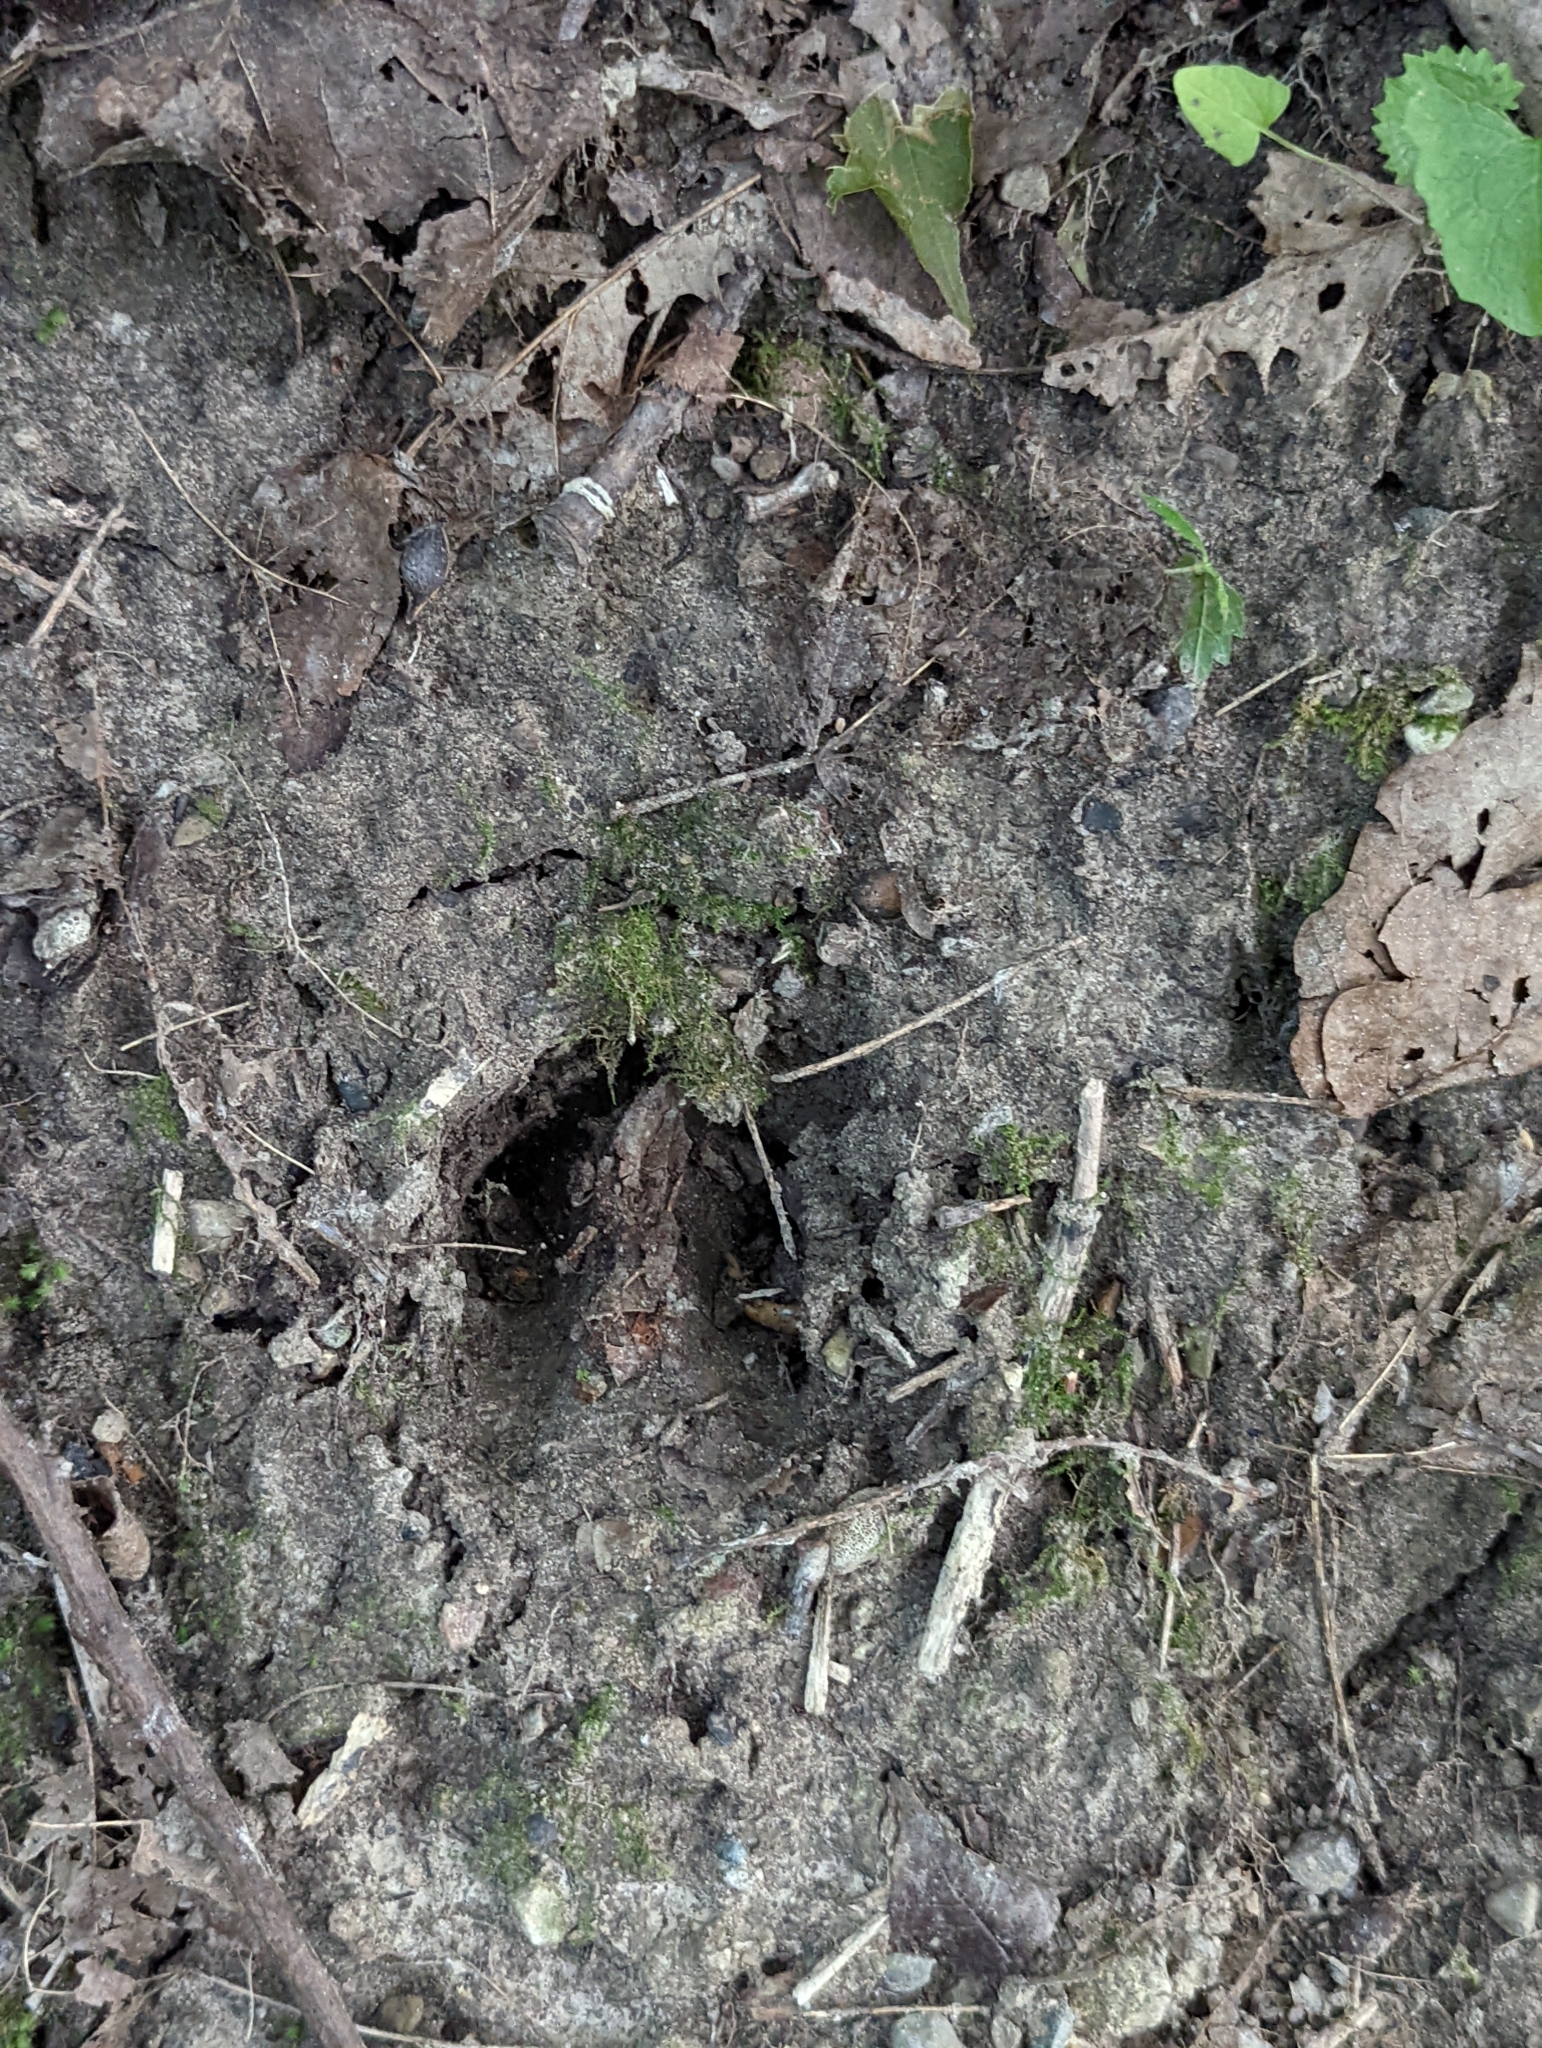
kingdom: Animalia
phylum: Chordata
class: Mammalia
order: Artiodactyla
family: Cervidae
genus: Odocoileus
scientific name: Odocoileus virginianus
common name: White-tailed deer
